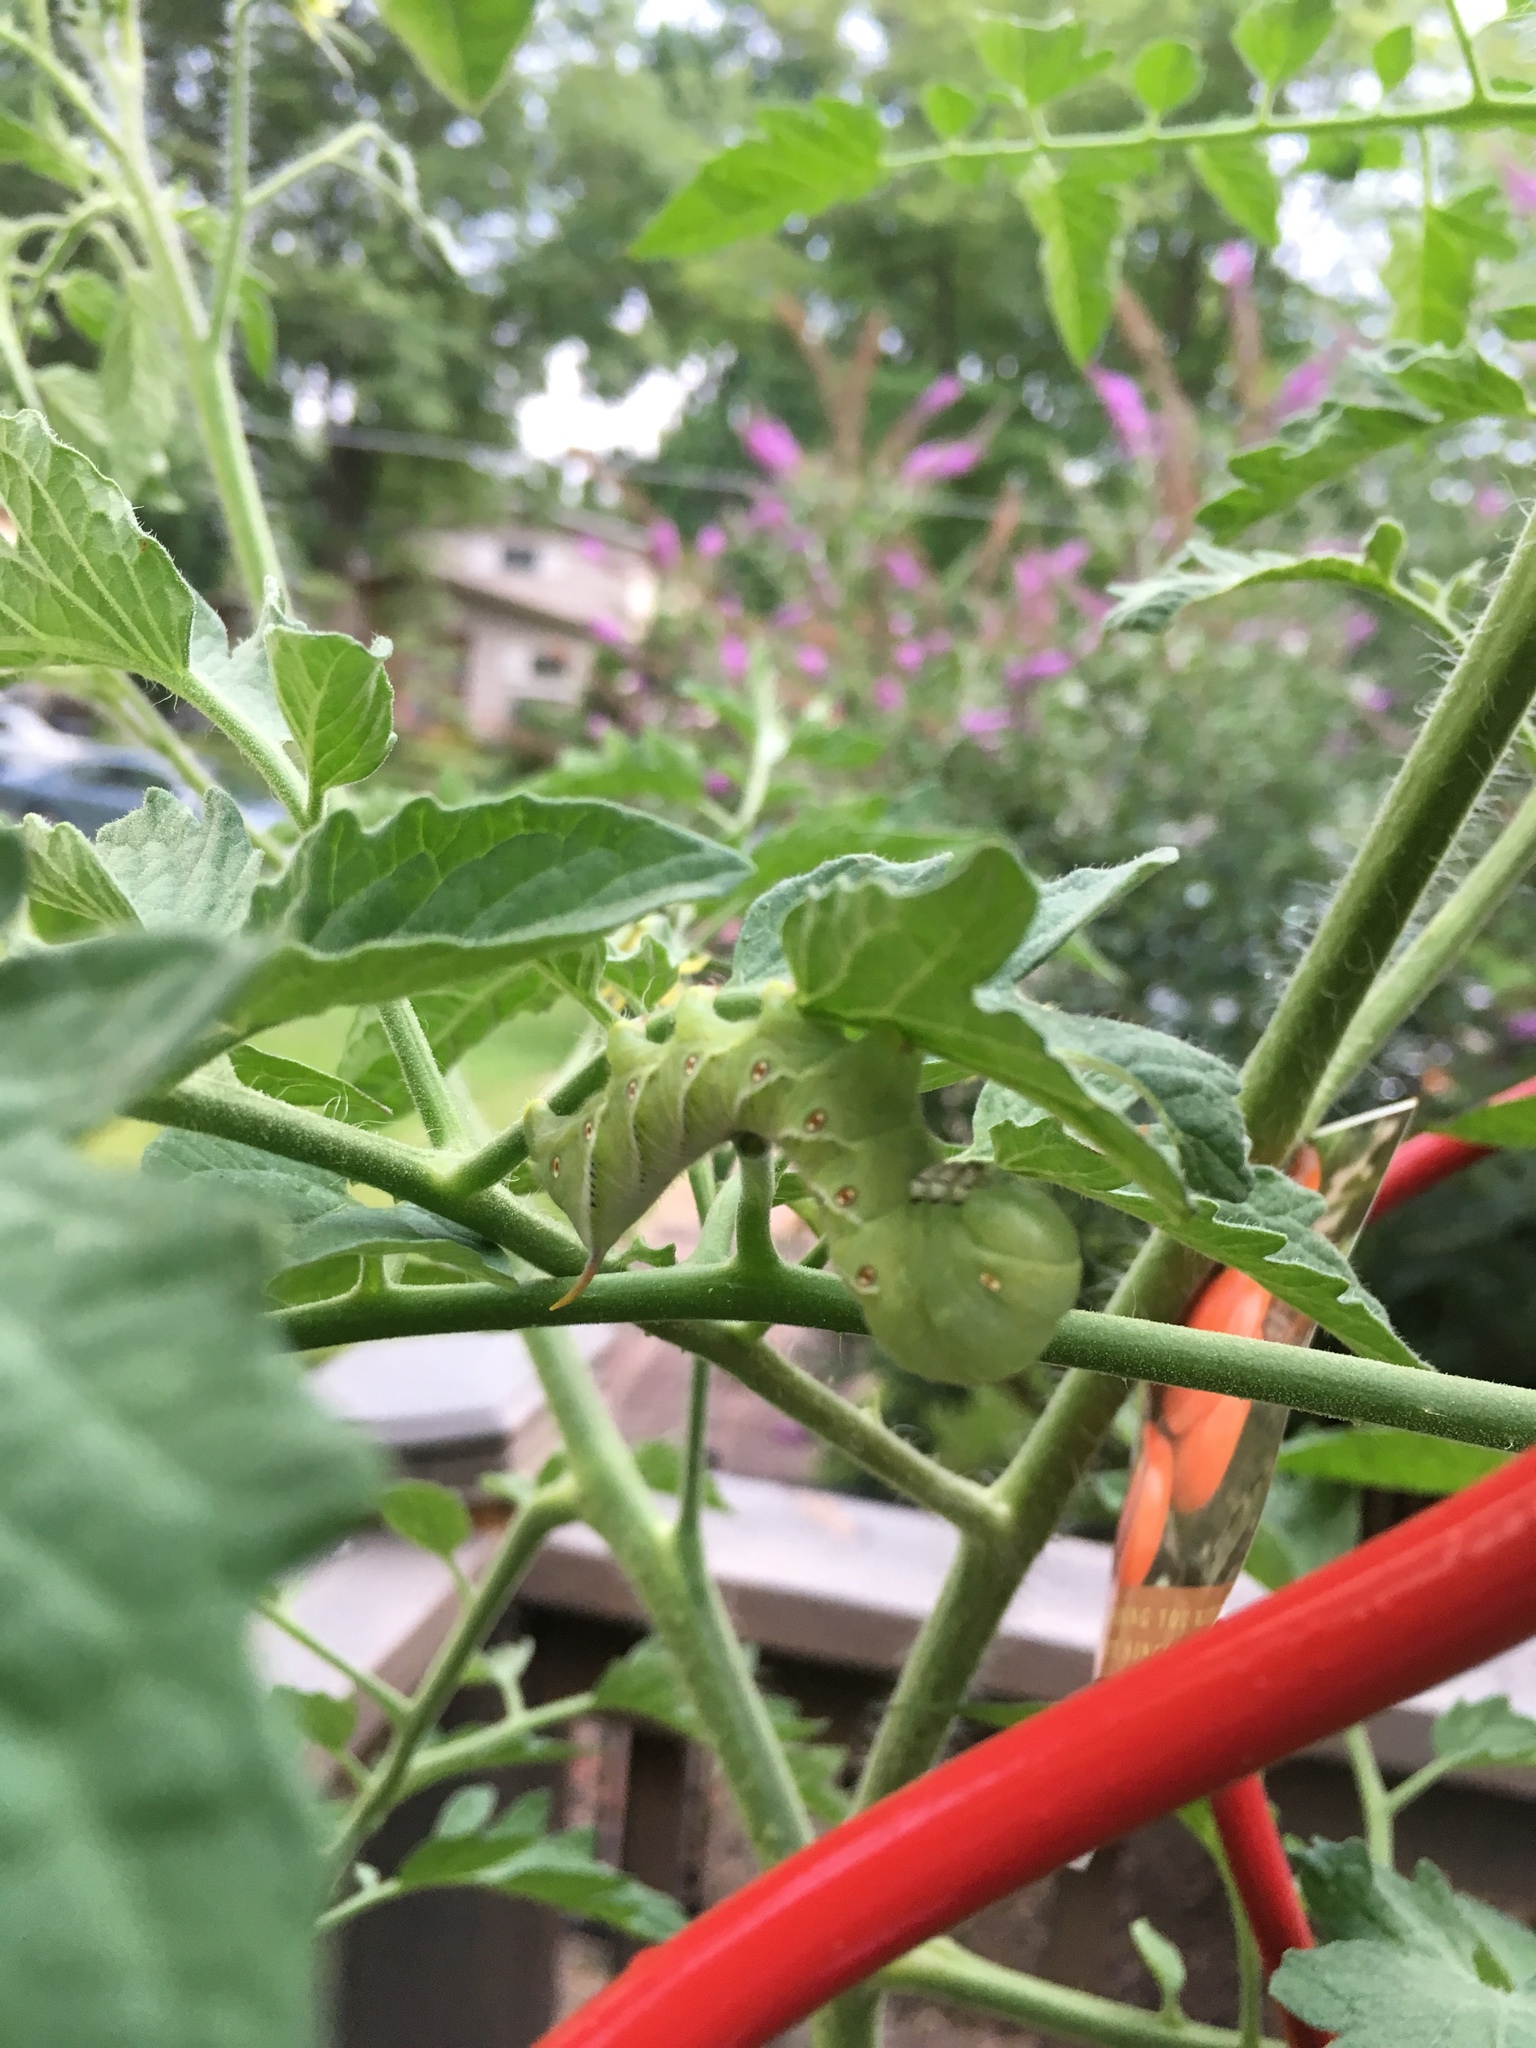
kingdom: Animalia
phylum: Arthropoda
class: Insecta
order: Lepidoptera
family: Sphingidae
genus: Manduca
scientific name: Manduca sexta
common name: Carolina sphinx
